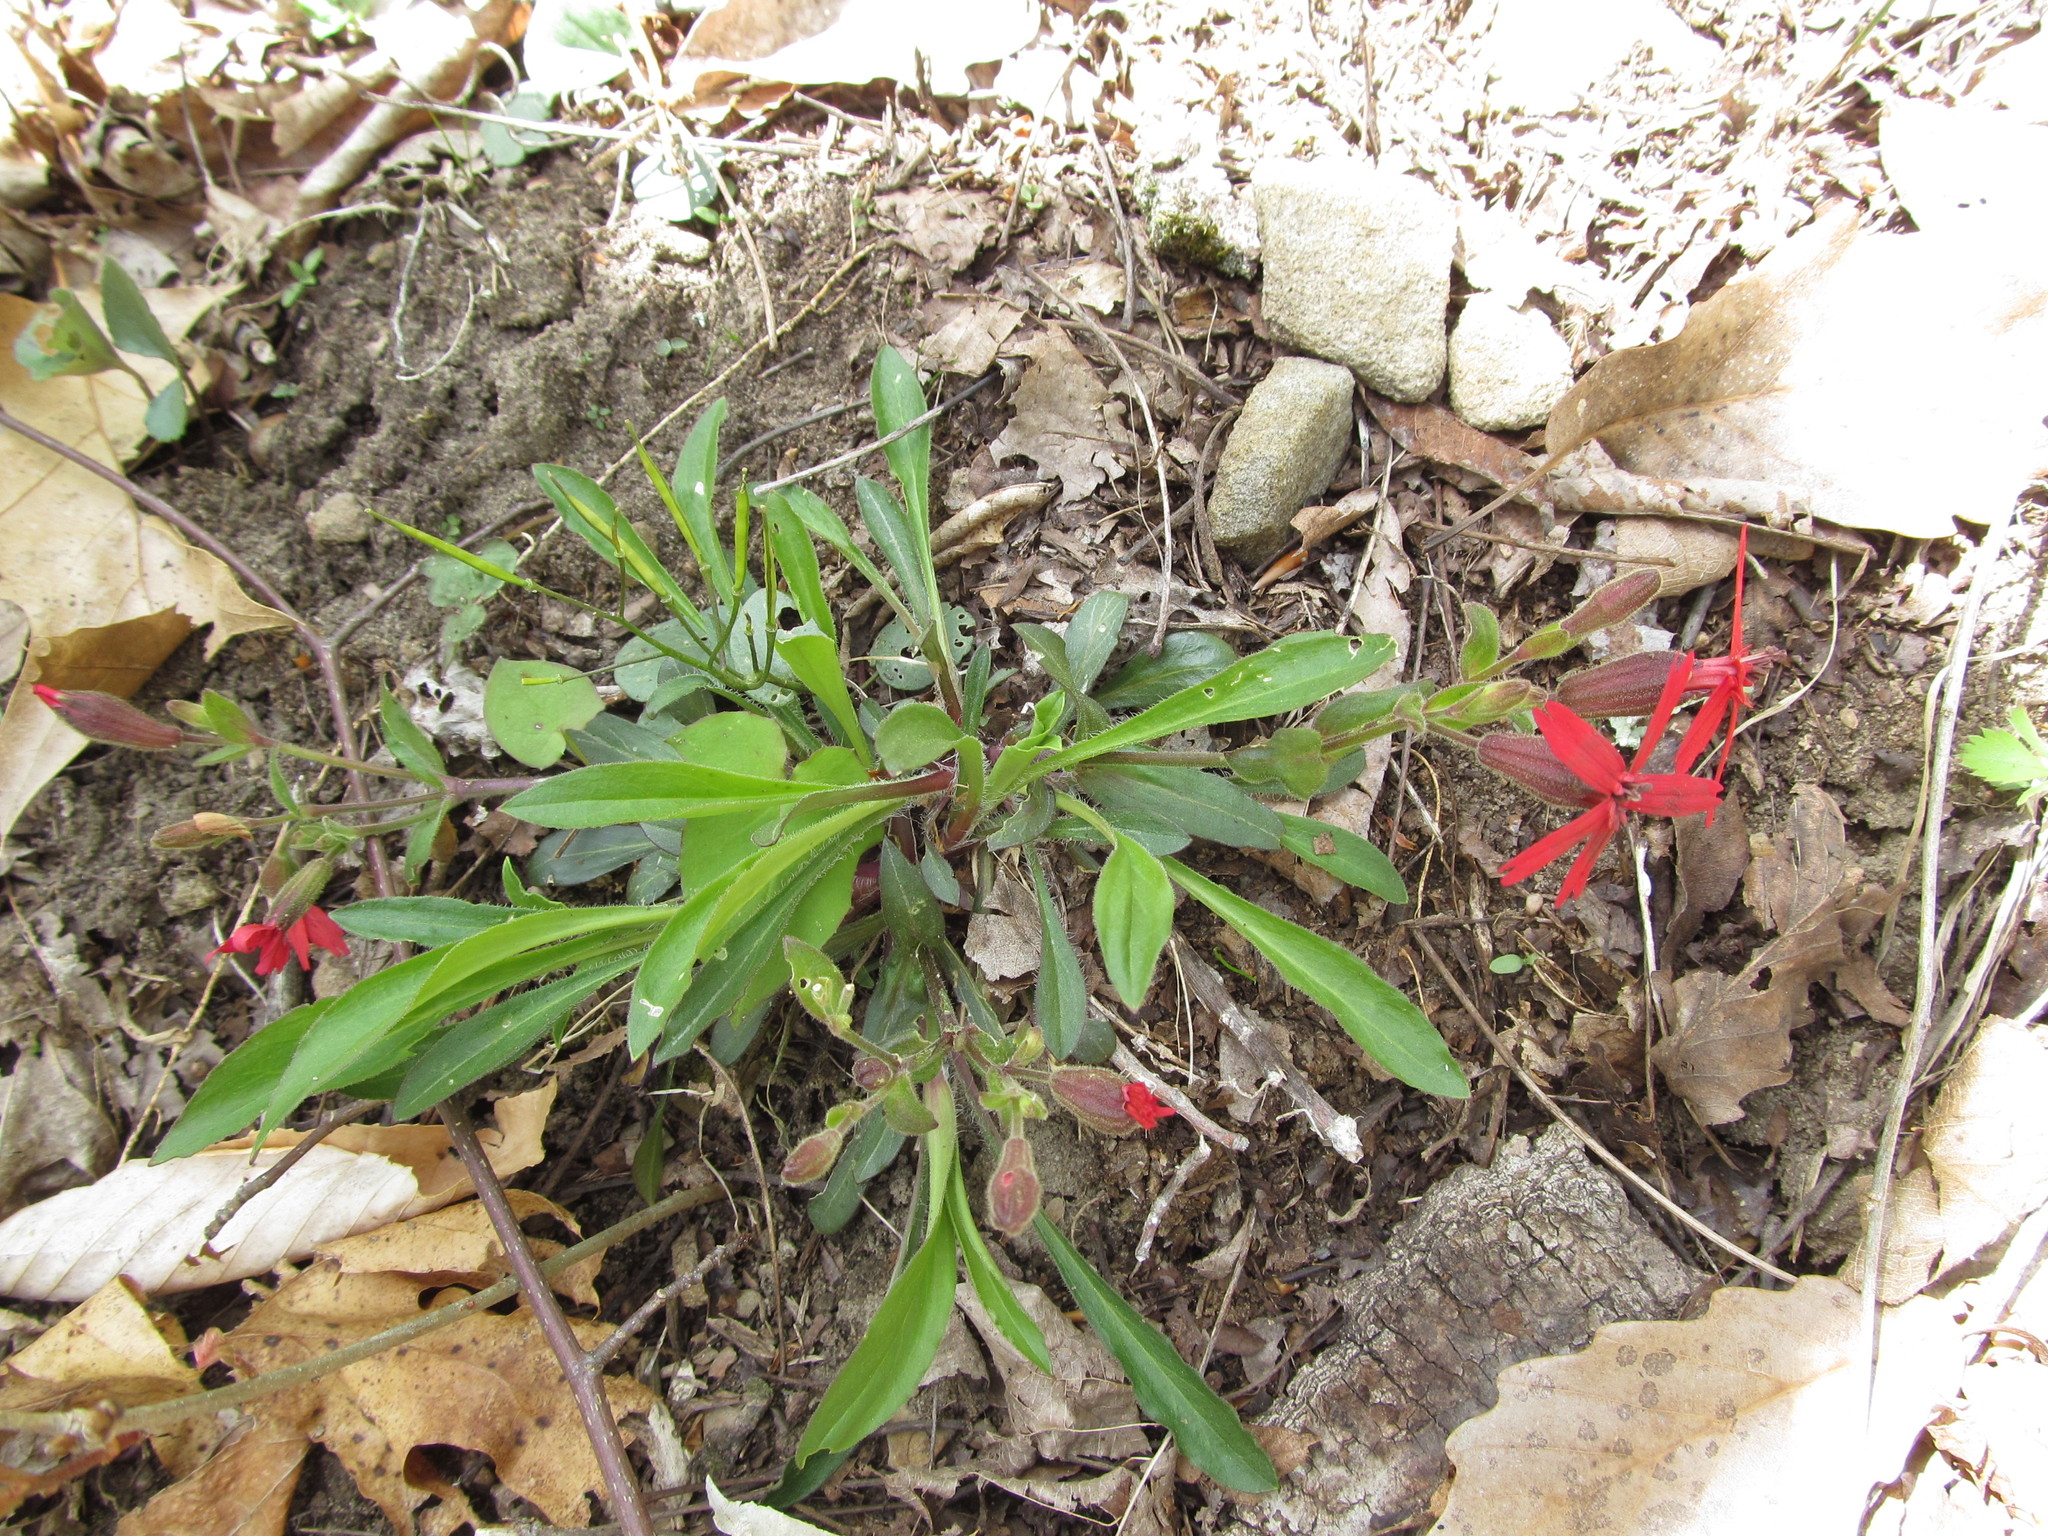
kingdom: Plantae
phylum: Tracheophyta
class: Magnoliopsida
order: Caryophyllales
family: Caryophyllaceae
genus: Silene
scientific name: Silene virginica
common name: Fire-pink
